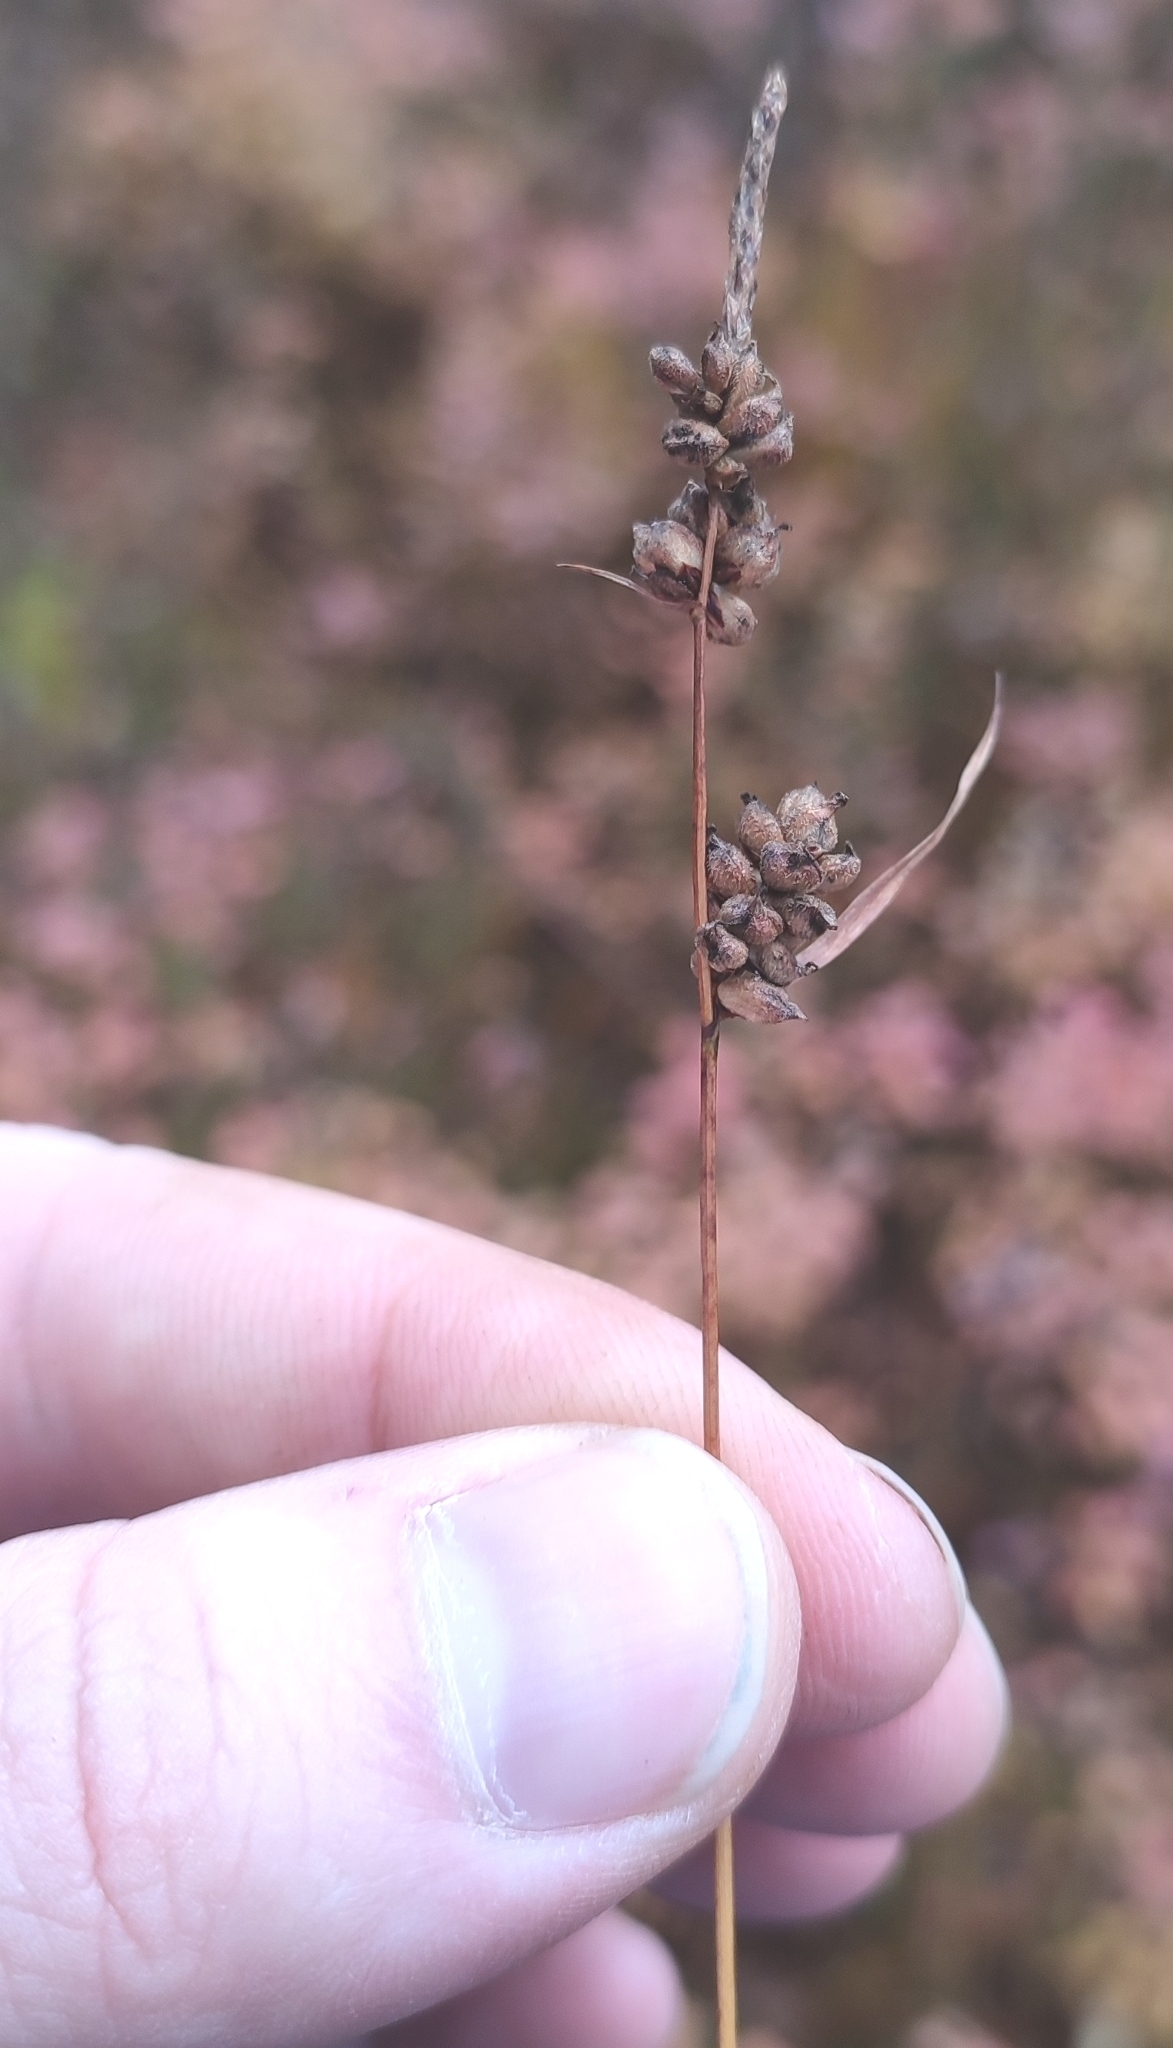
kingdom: Plantae
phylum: Tracheophyta
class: Liliopsida
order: Poales
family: Cyperaceae
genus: Carex
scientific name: Carex globularis
